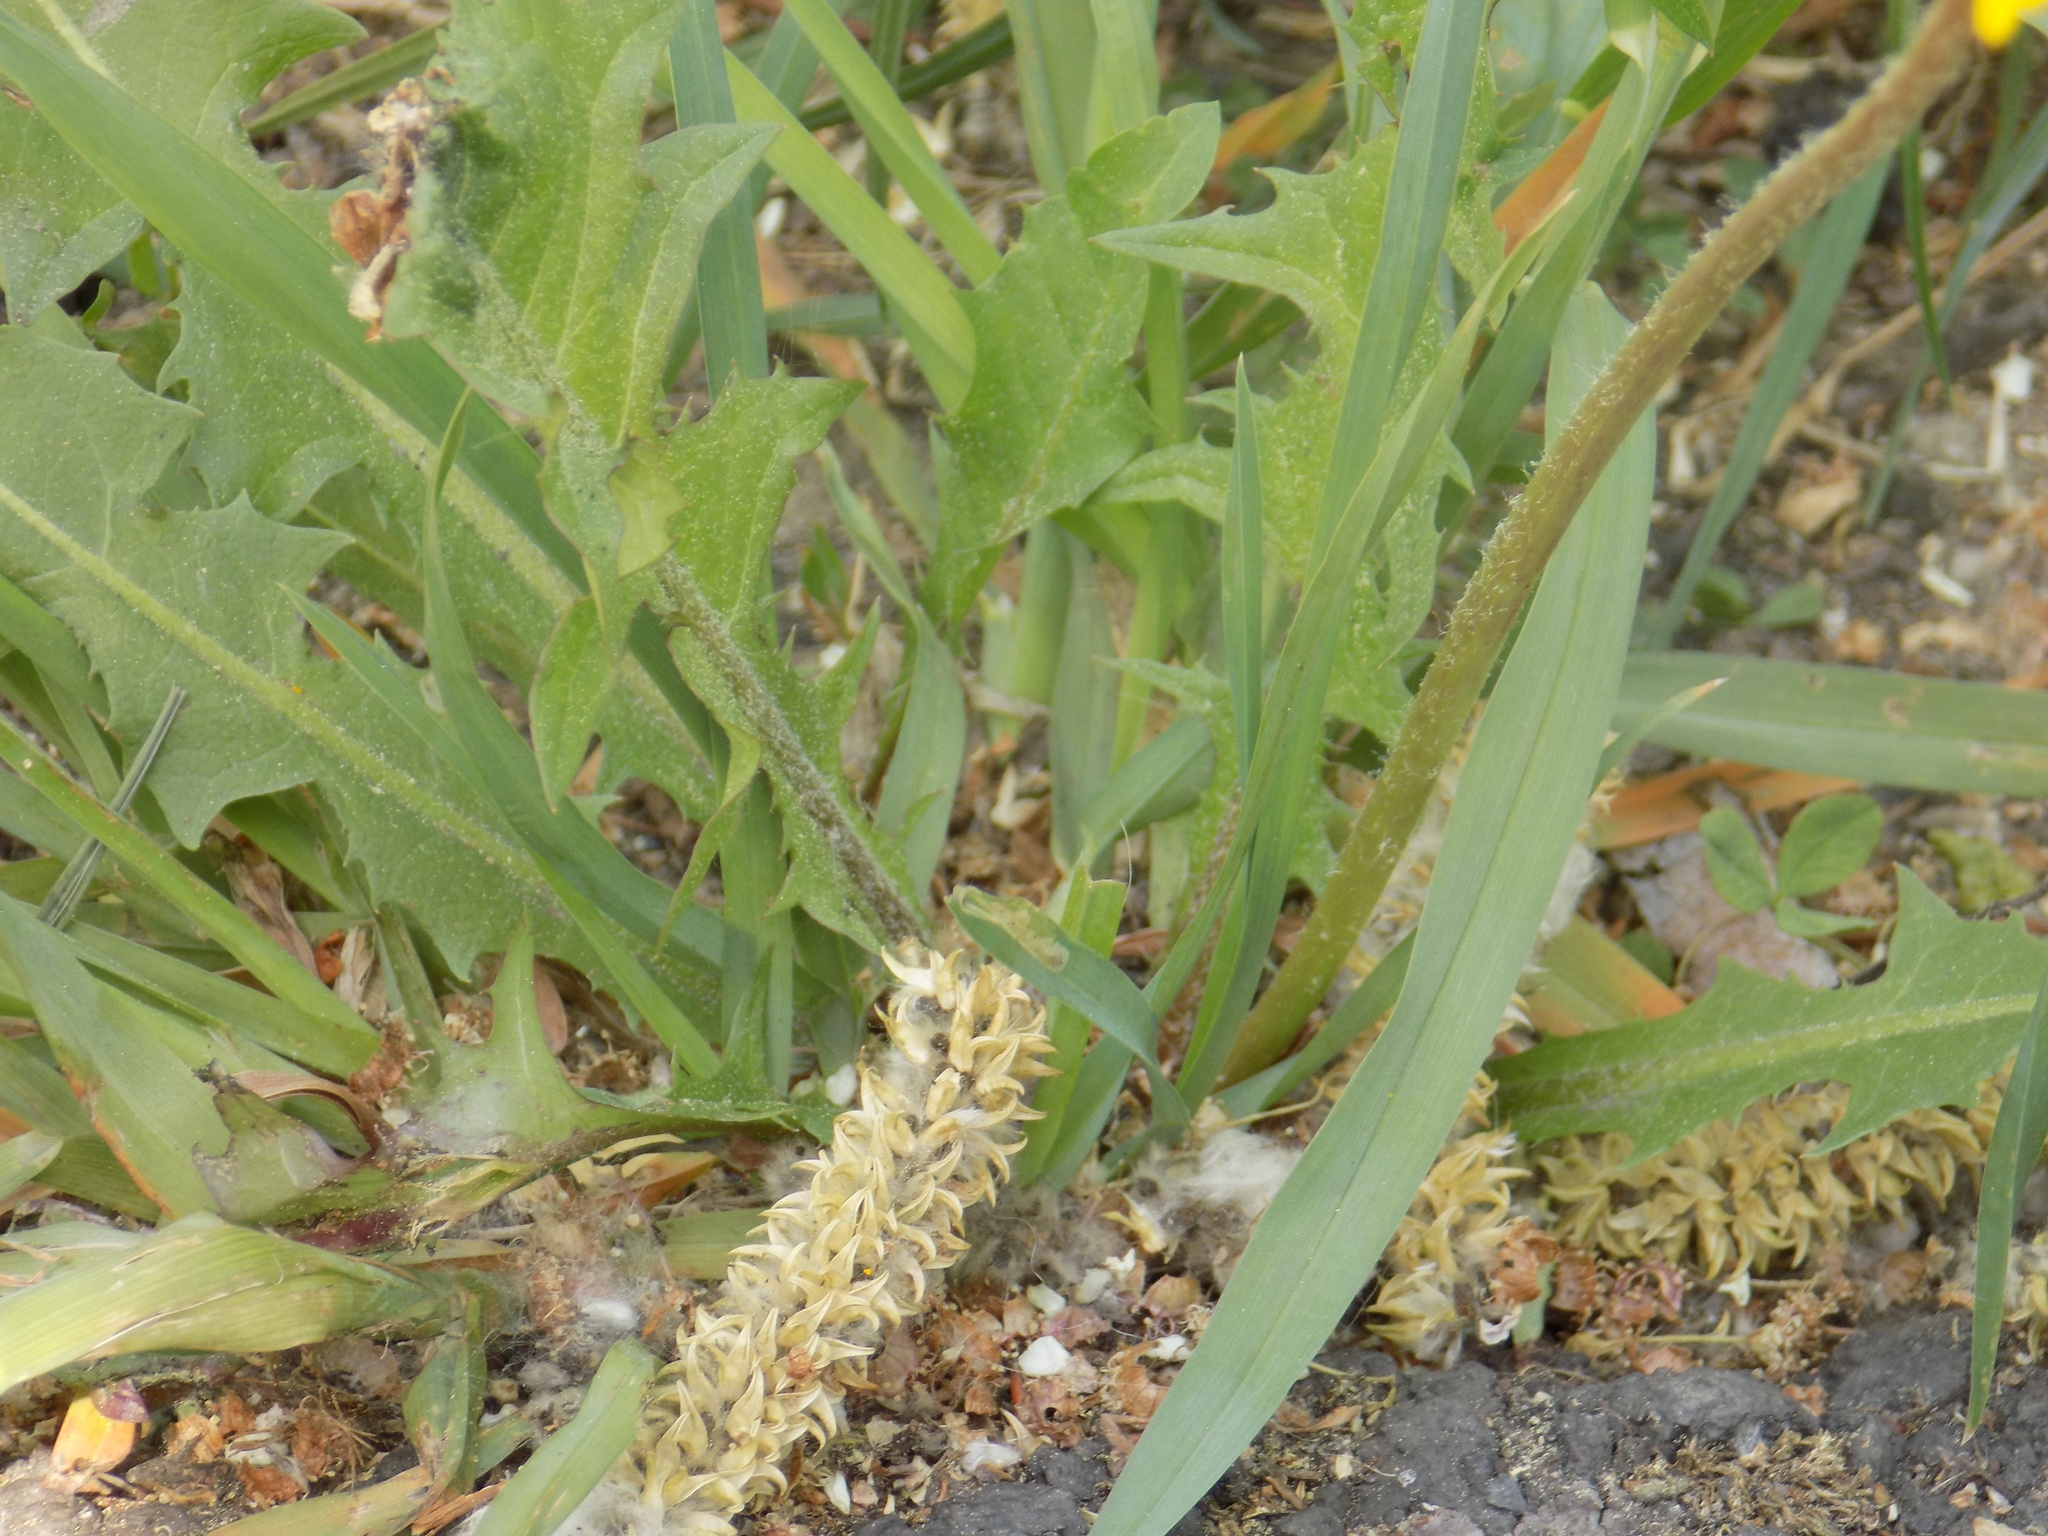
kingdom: Plantae
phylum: Tracheophyta
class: Magnoliopsida
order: Asterales
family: Asteraceae
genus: Taraxacum
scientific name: Taraxacum officinale
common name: Common dandelion
